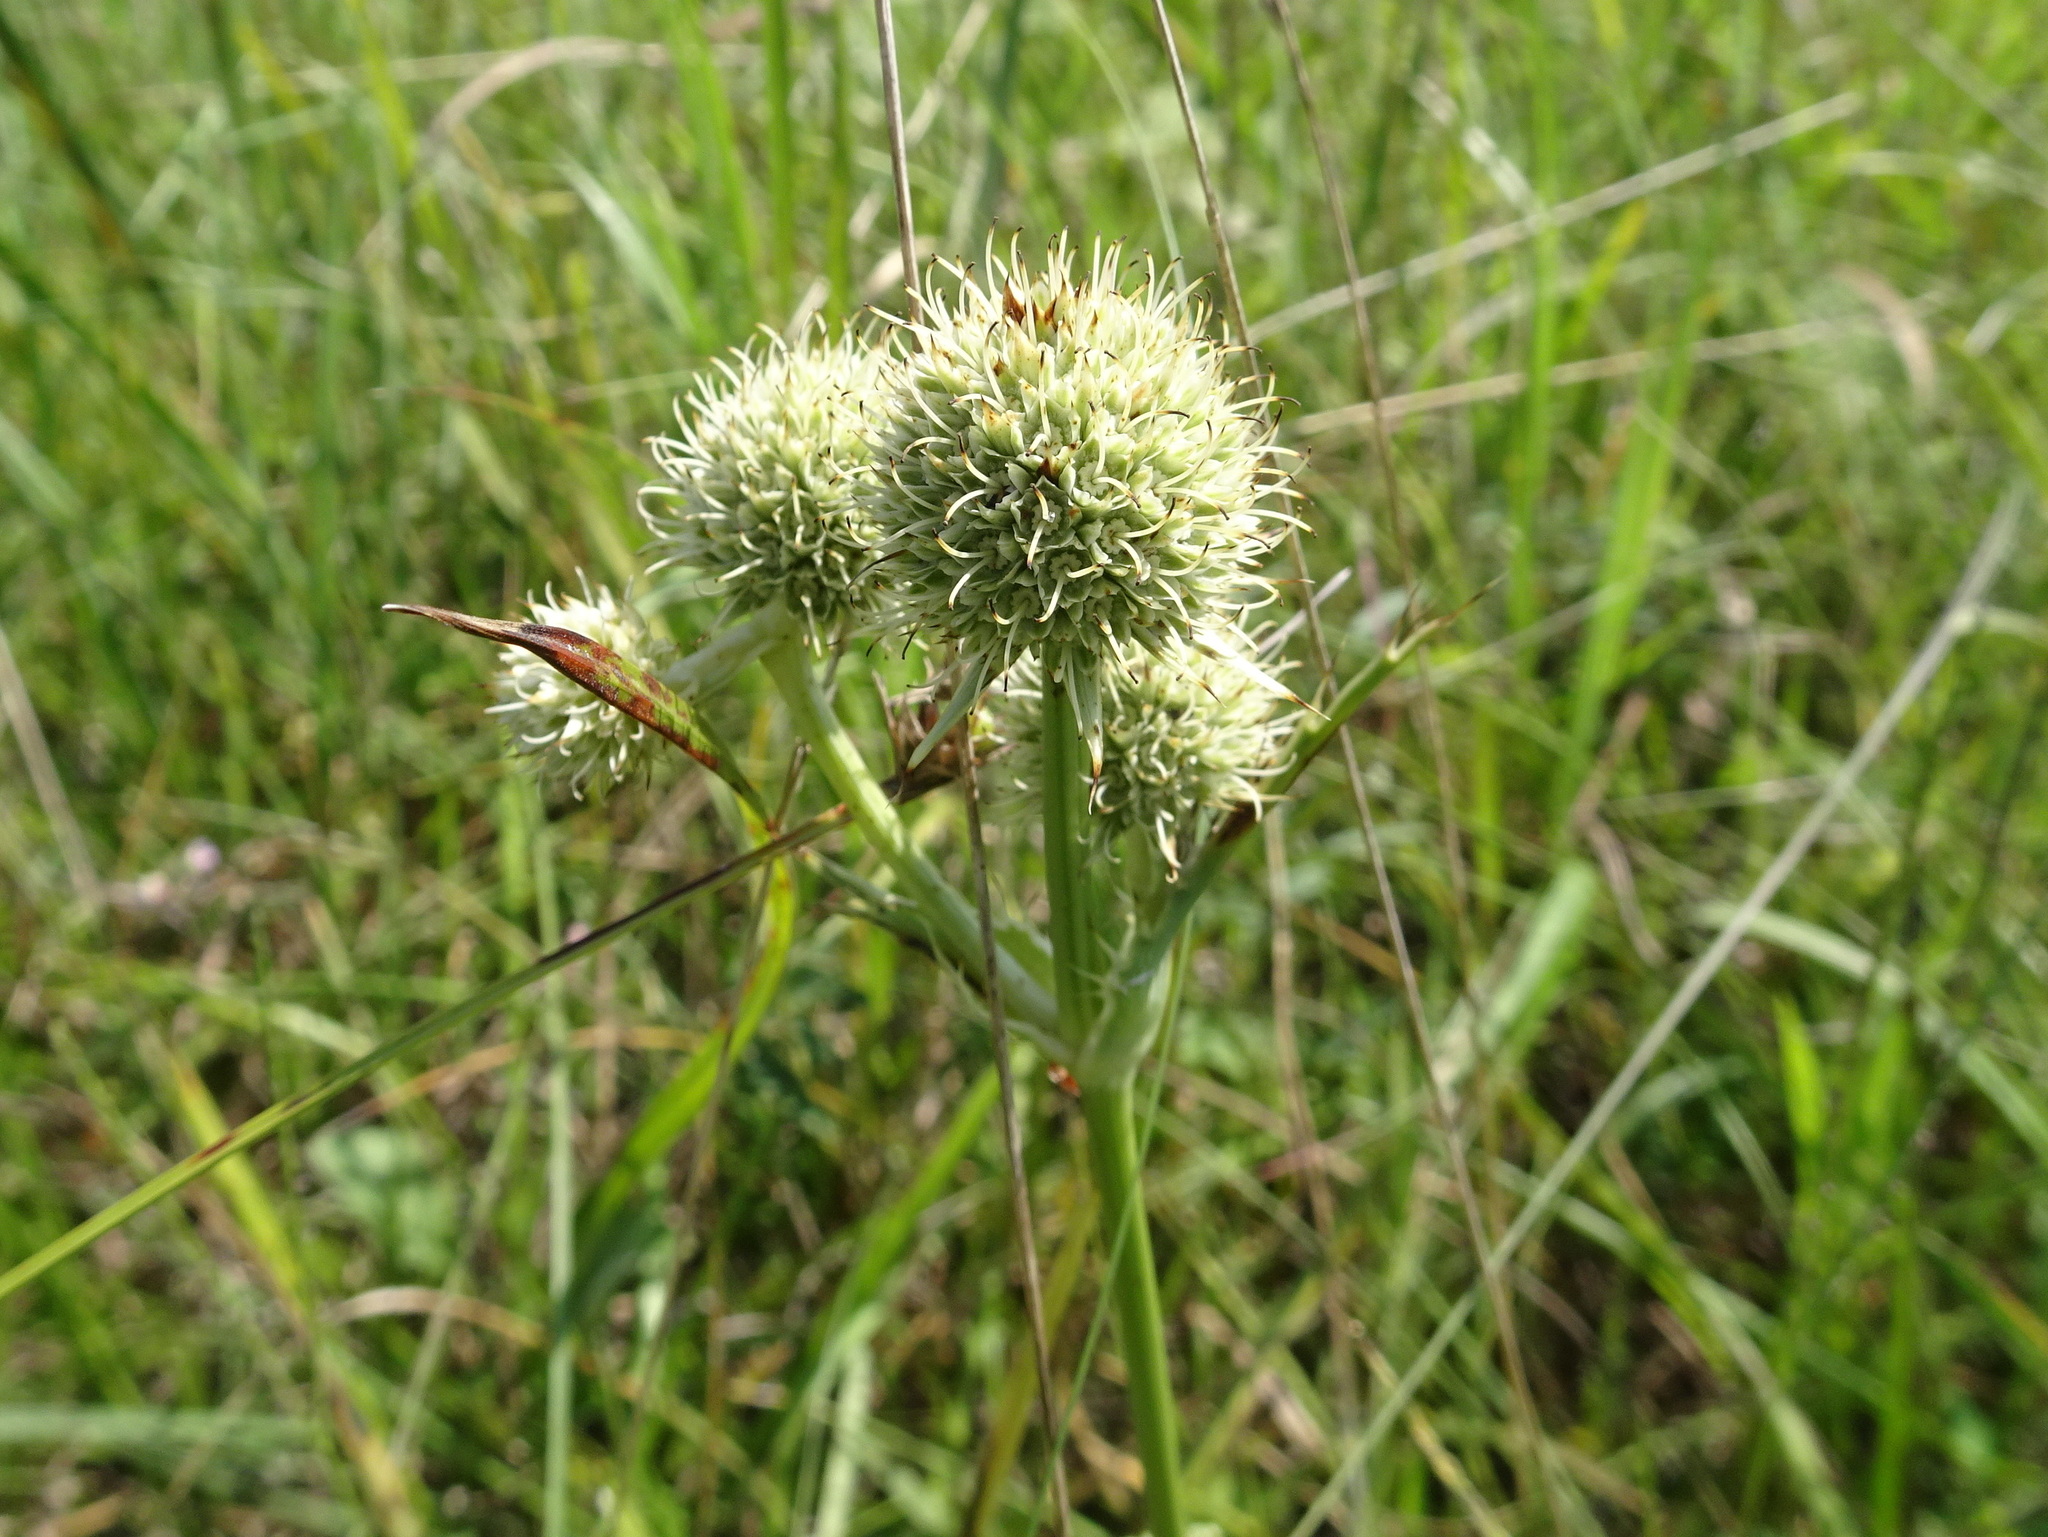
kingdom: Plantae
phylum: Tracheophyta
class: Magnoliopsida
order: Apiales
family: Apiaceae
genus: Eryngium
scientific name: Eryngium yuccifolium
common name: Button eryngo
